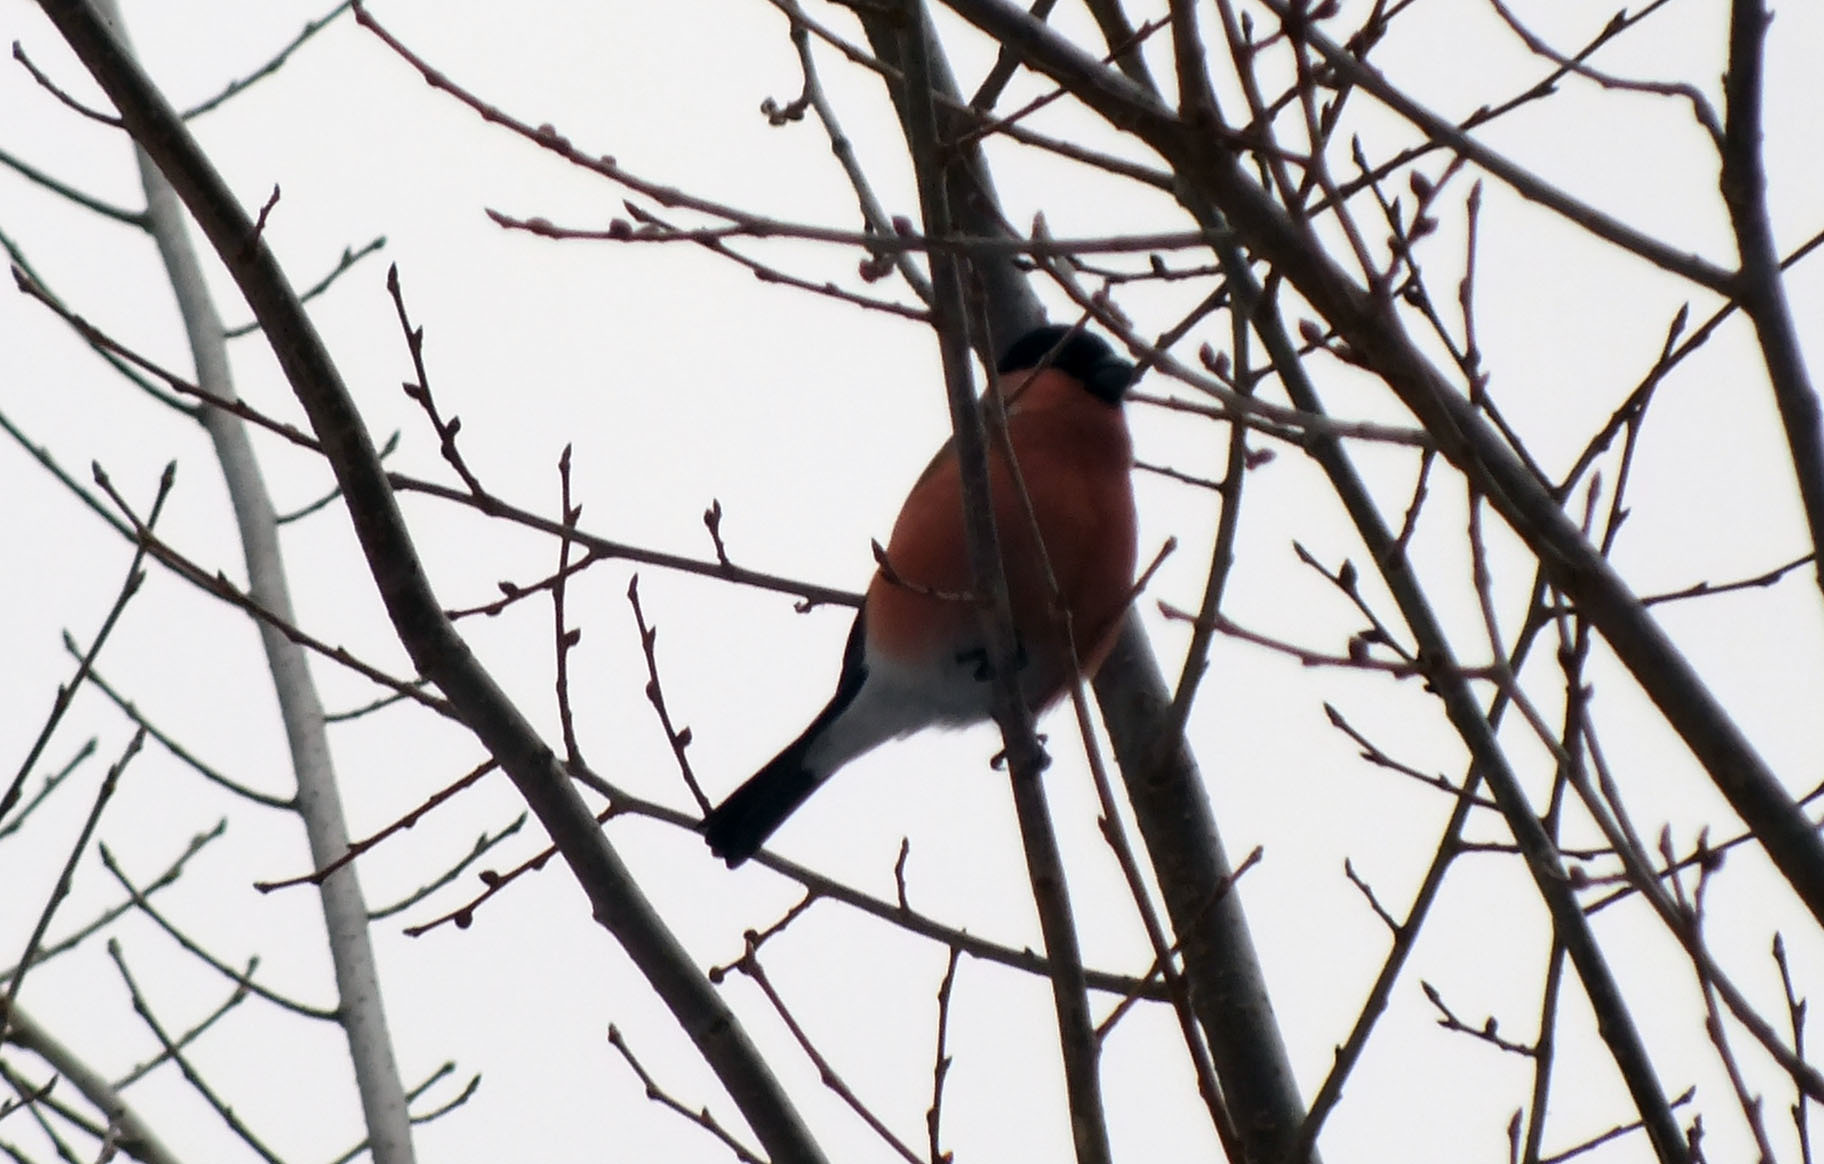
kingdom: Animalia
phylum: Chordata
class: Aves
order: Passeriformes
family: Fringillidae
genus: Pyrrhula
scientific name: Pyrrhula pyrrhula
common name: Eurasian bullfinch
